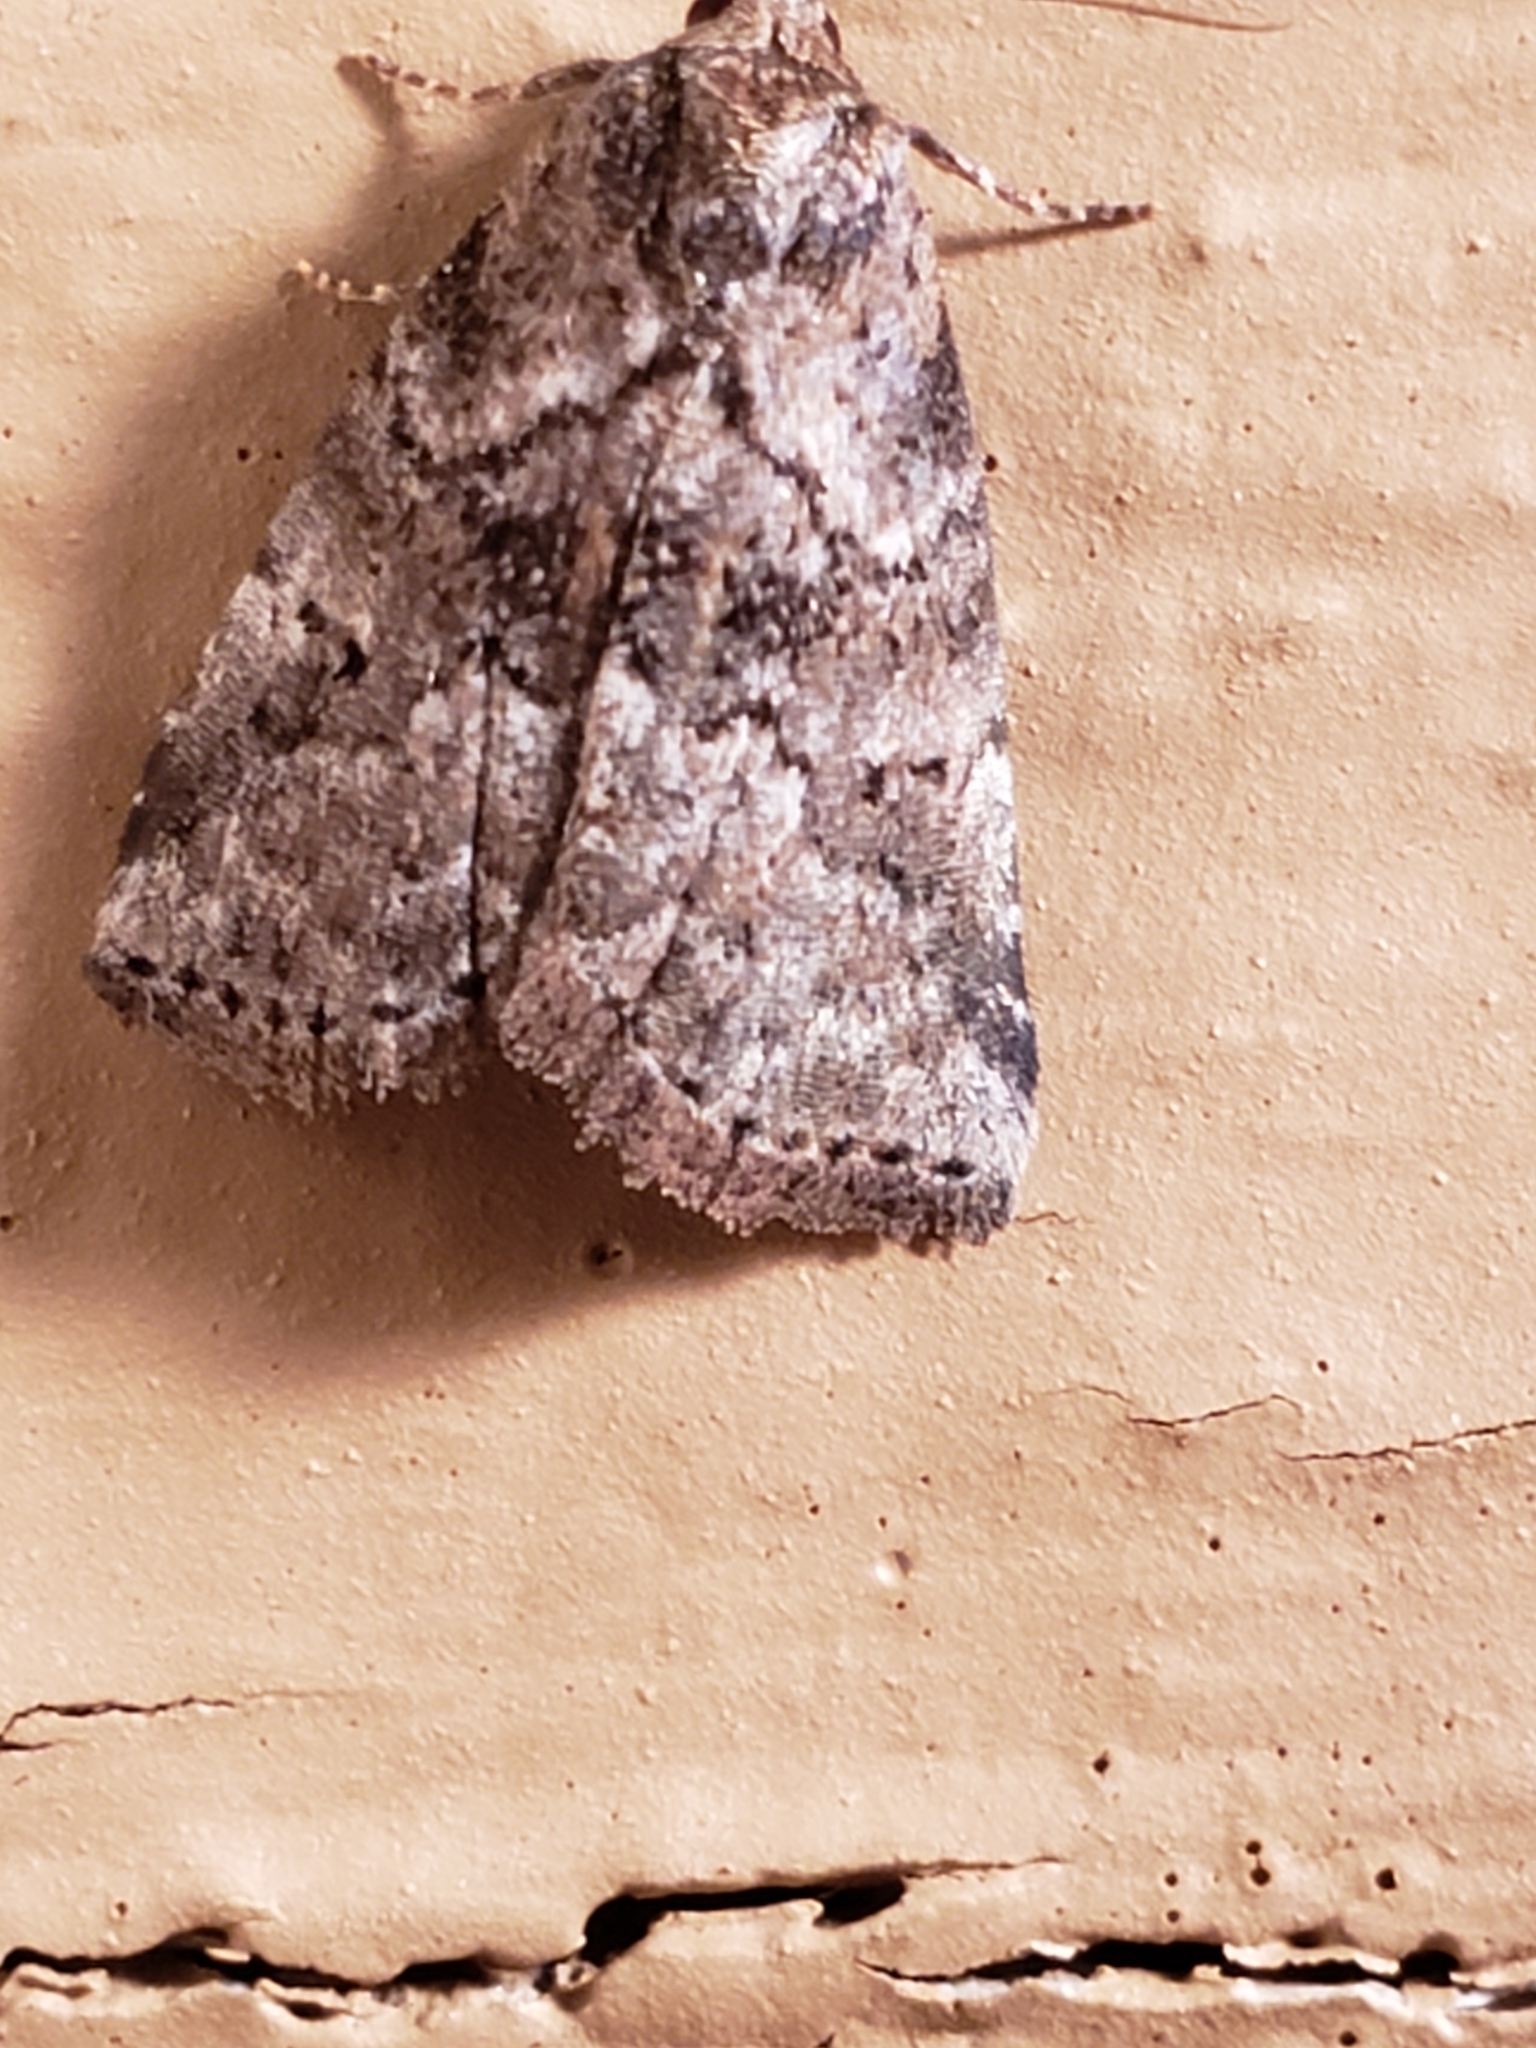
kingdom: Animalia
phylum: Arthropoda
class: Insecta
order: Lepidoptera
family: Erebidae
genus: Hyperstrotia
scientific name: Hyperstrotia nana
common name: White-lined graylet
